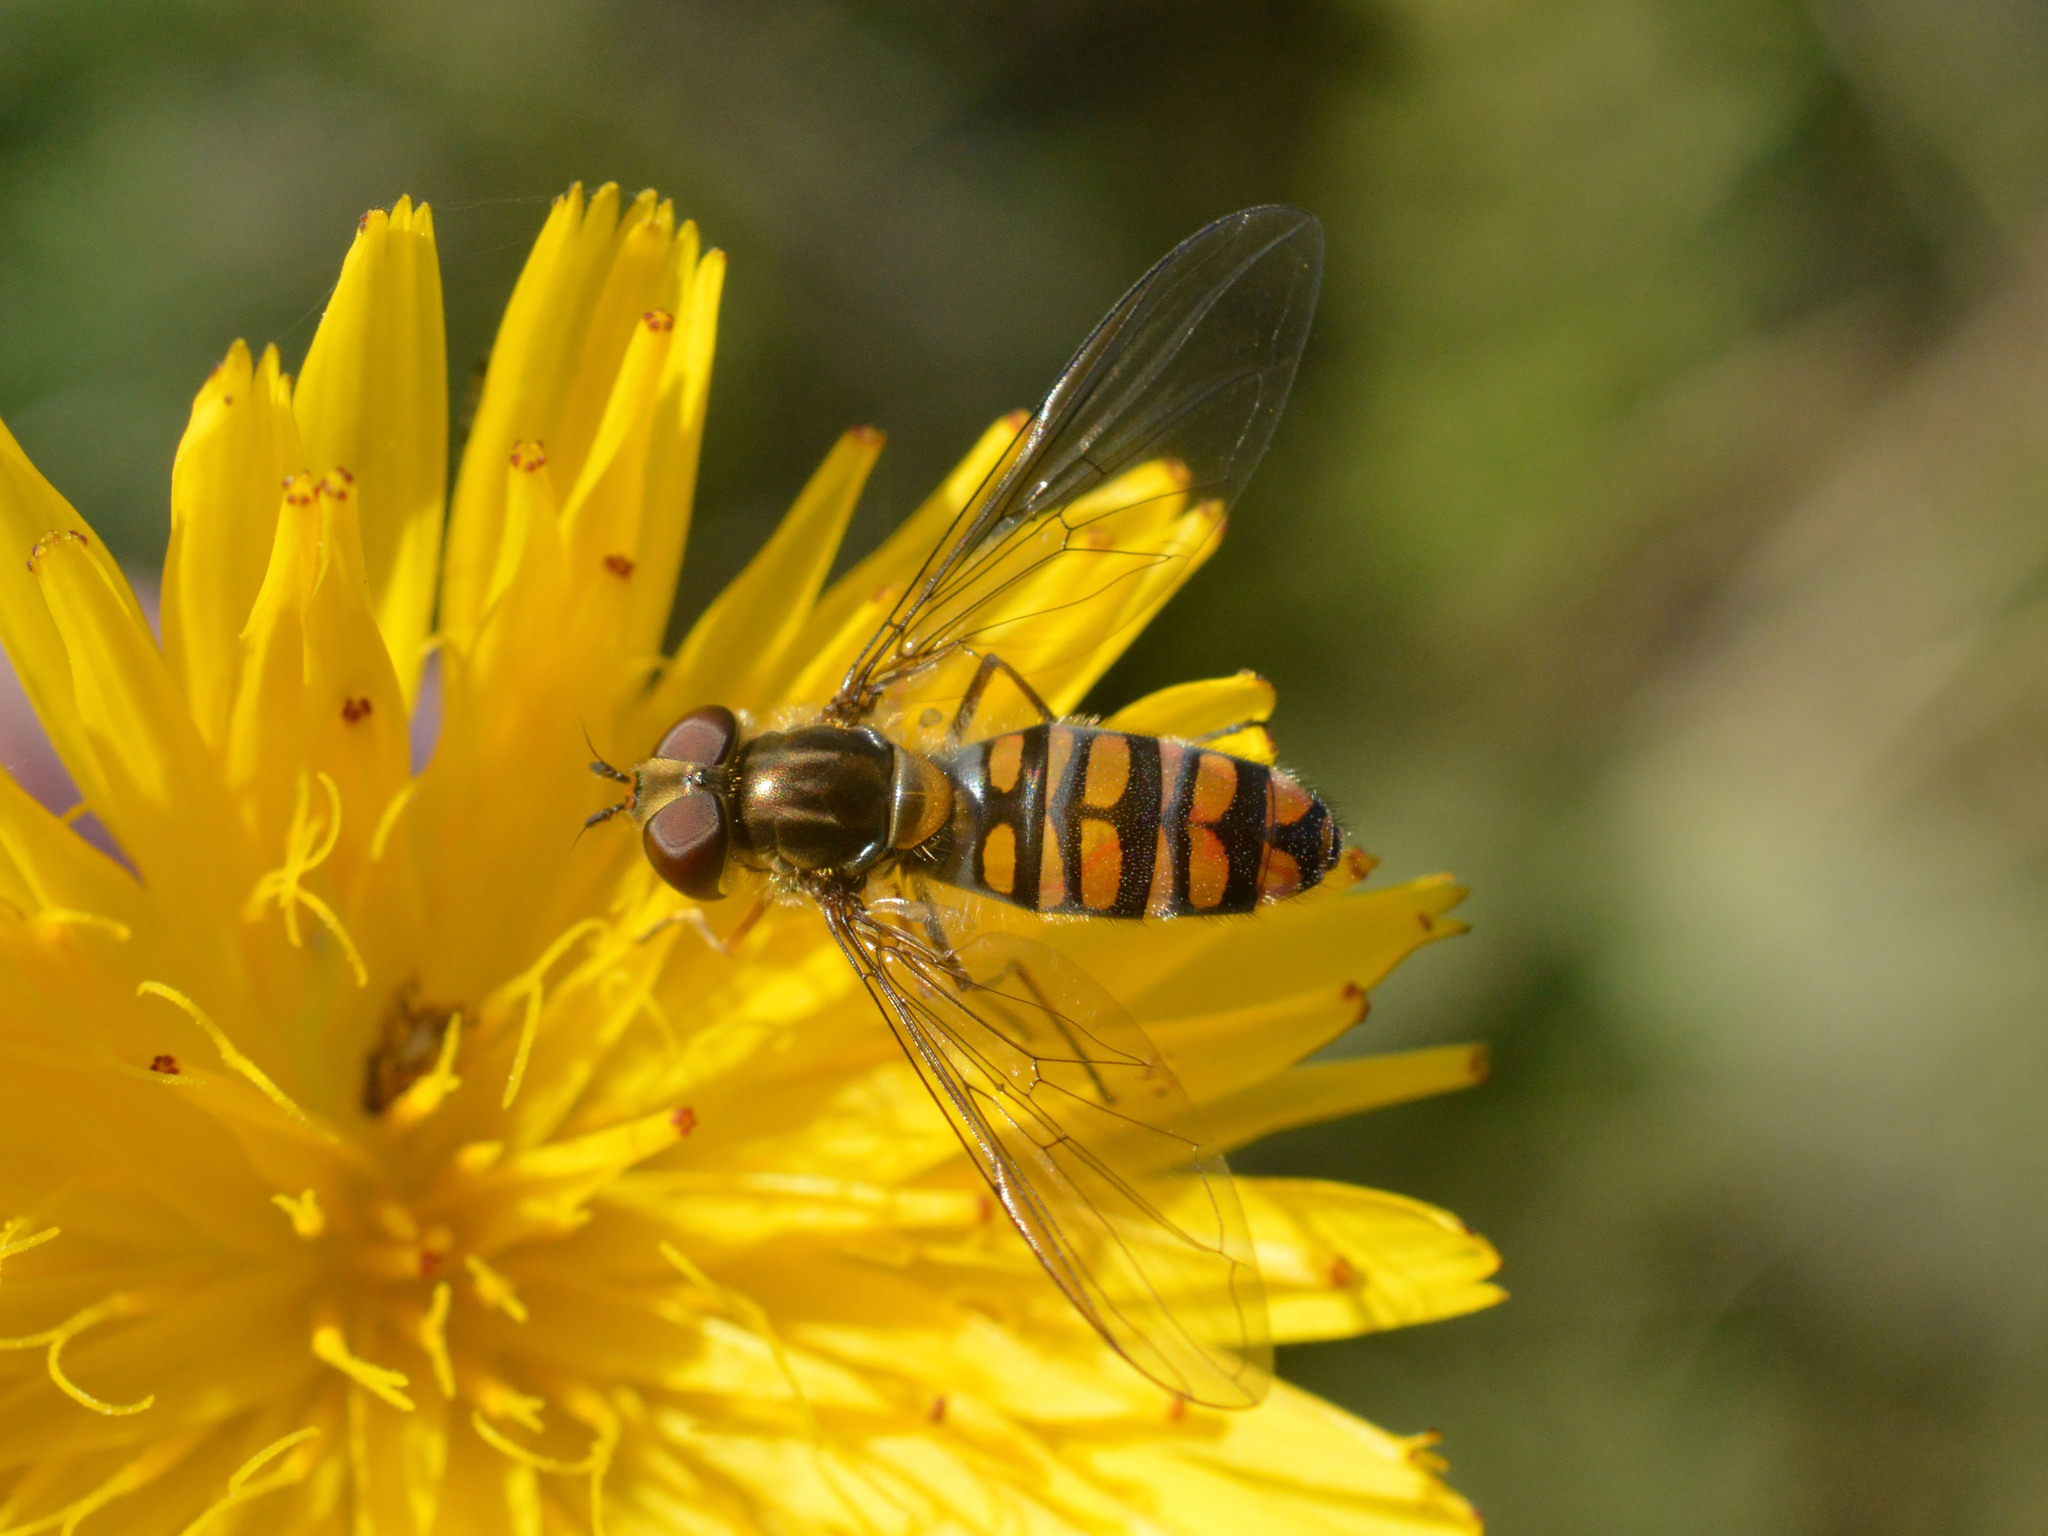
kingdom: Animalia
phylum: Arthropoda
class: Insecta
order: Diptera
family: Syrphidae
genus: Episyrphus
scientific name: Episyrphus balteatus
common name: Marmalade hoverfly
